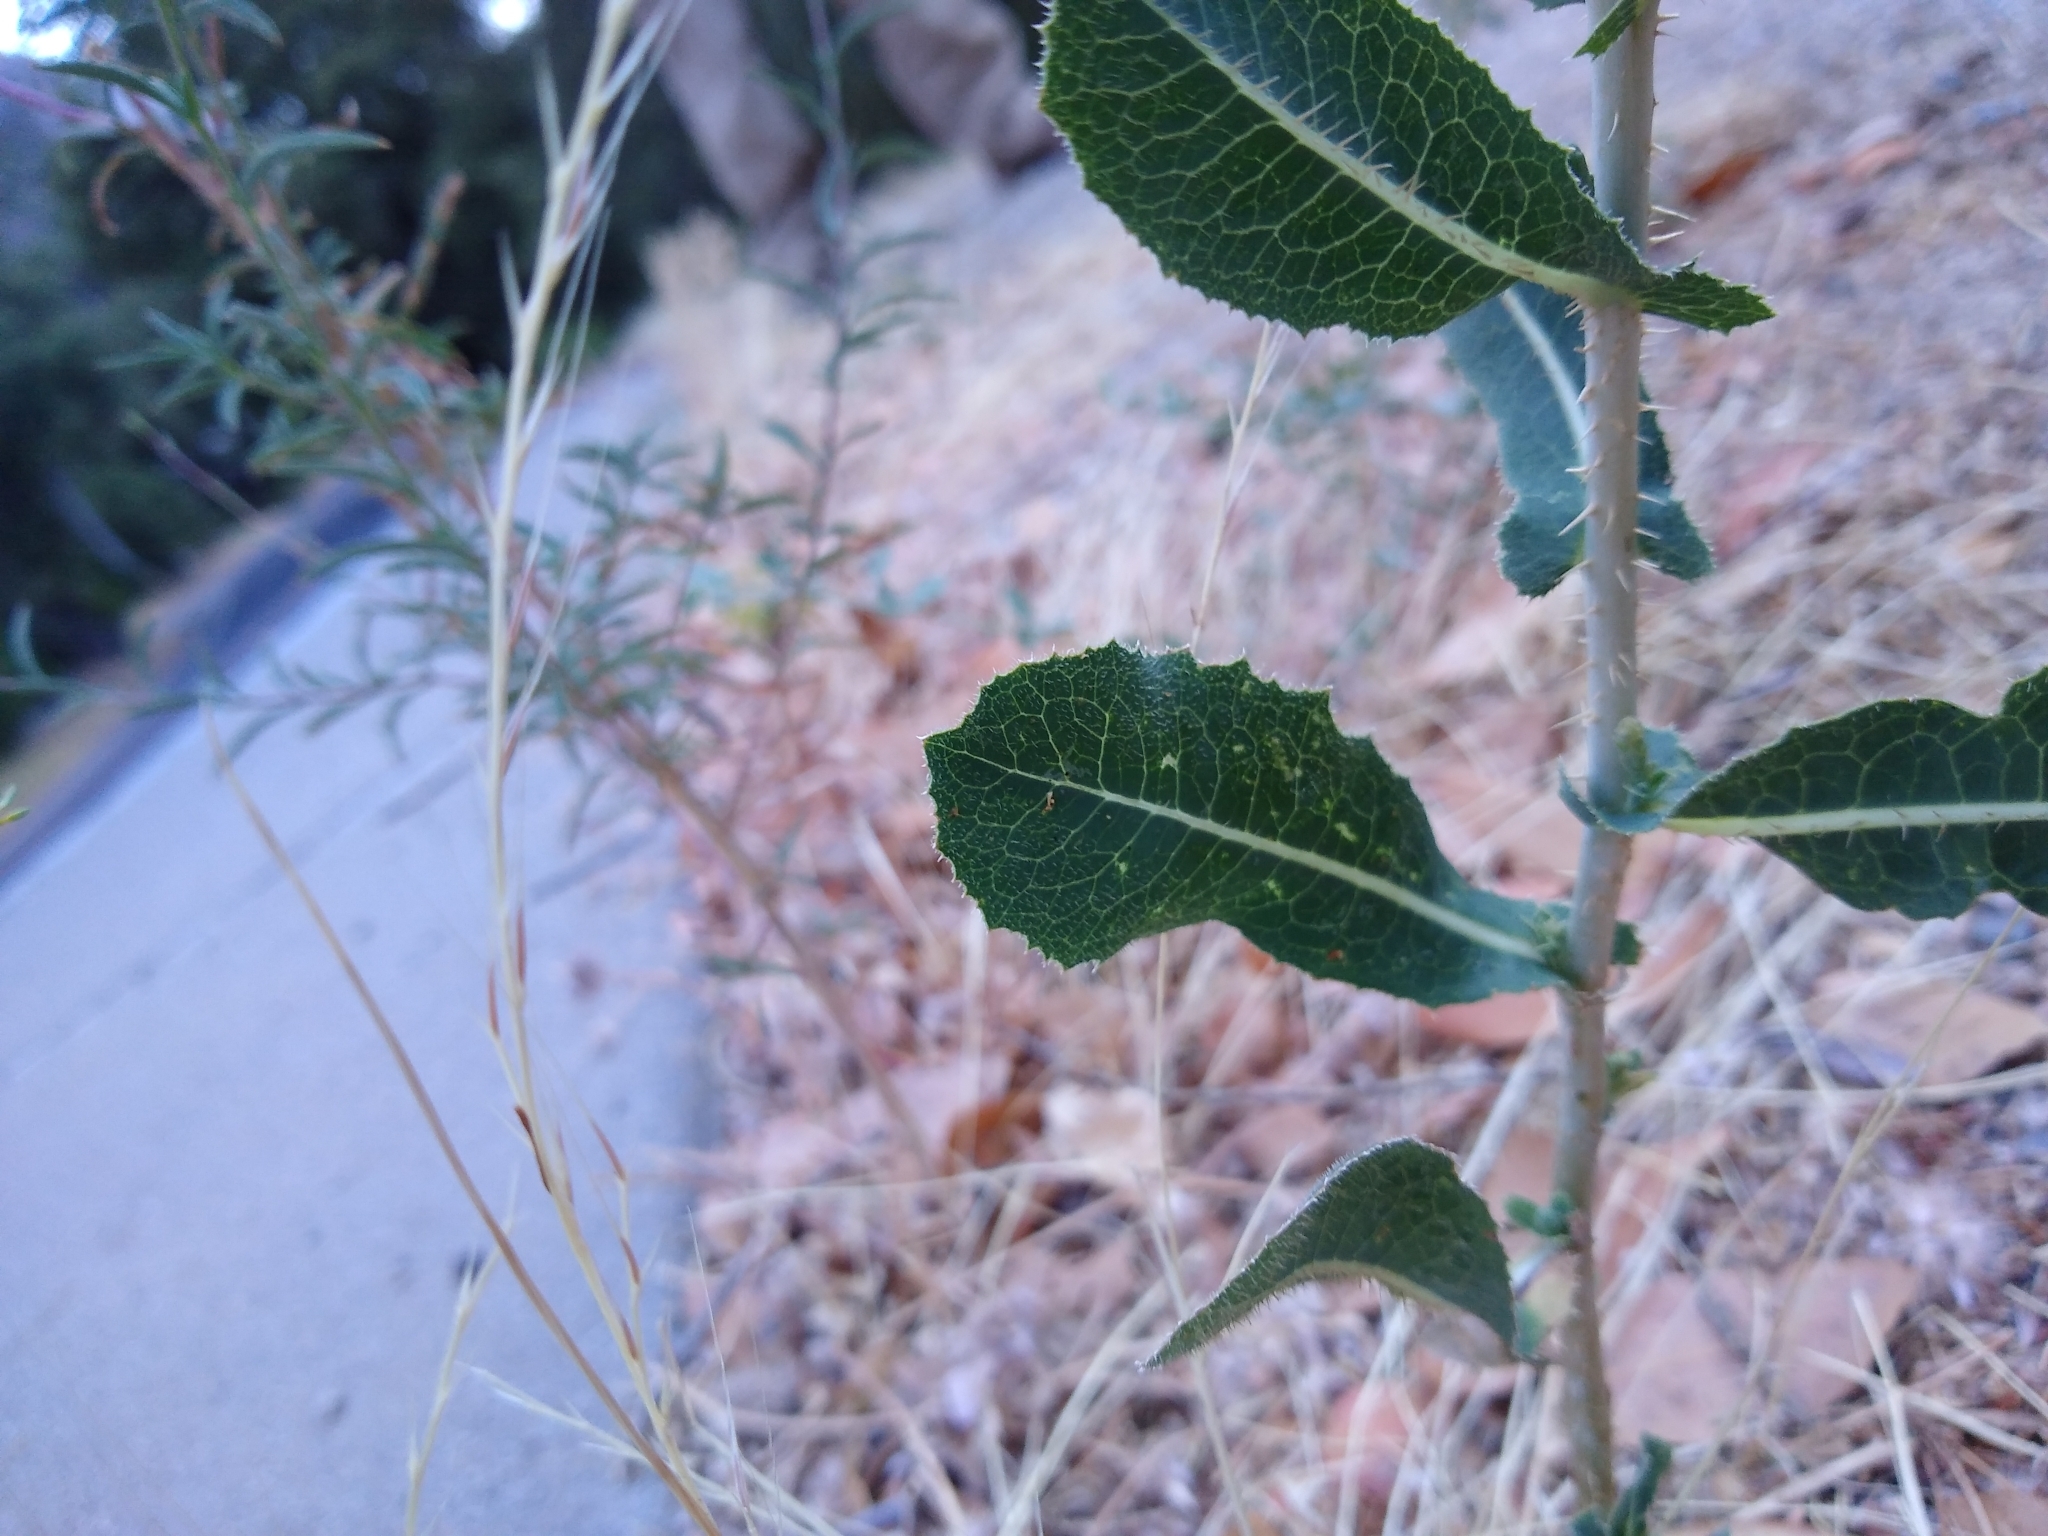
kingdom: Plantae
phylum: Tracheophyta
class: Magnoliopsida
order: Asterales
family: Asteraceae
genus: Lactuca
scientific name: Lactuca serriola
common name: Prickly lettuce
